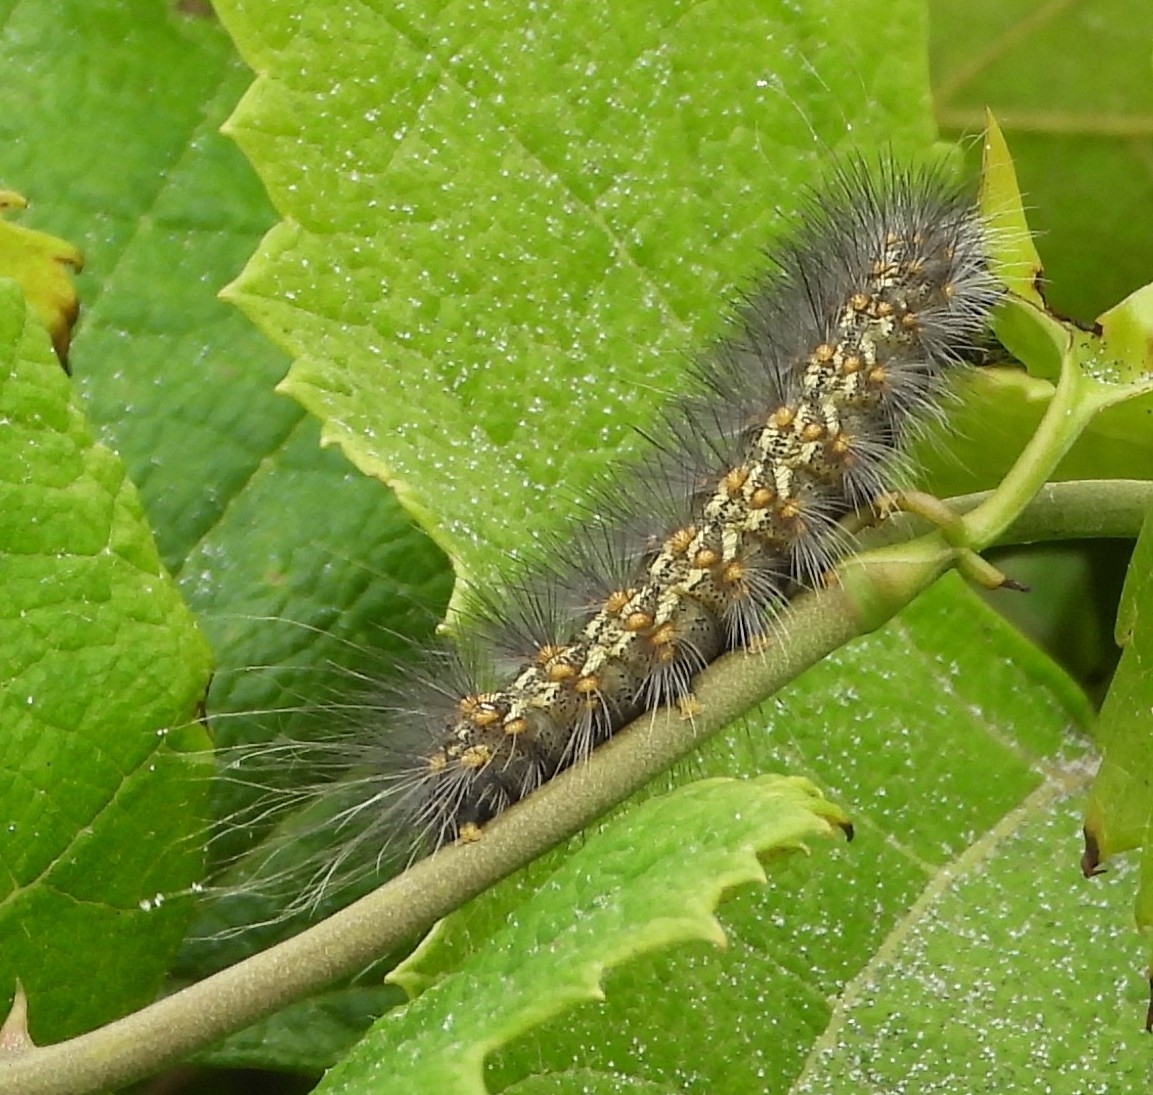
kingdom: Animalia
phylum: Arthropoda
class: Insecta
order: Lepidoptera
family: Erebidae
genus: Estigmene
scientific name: Estigmene acrea
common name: Salt marsh moth
